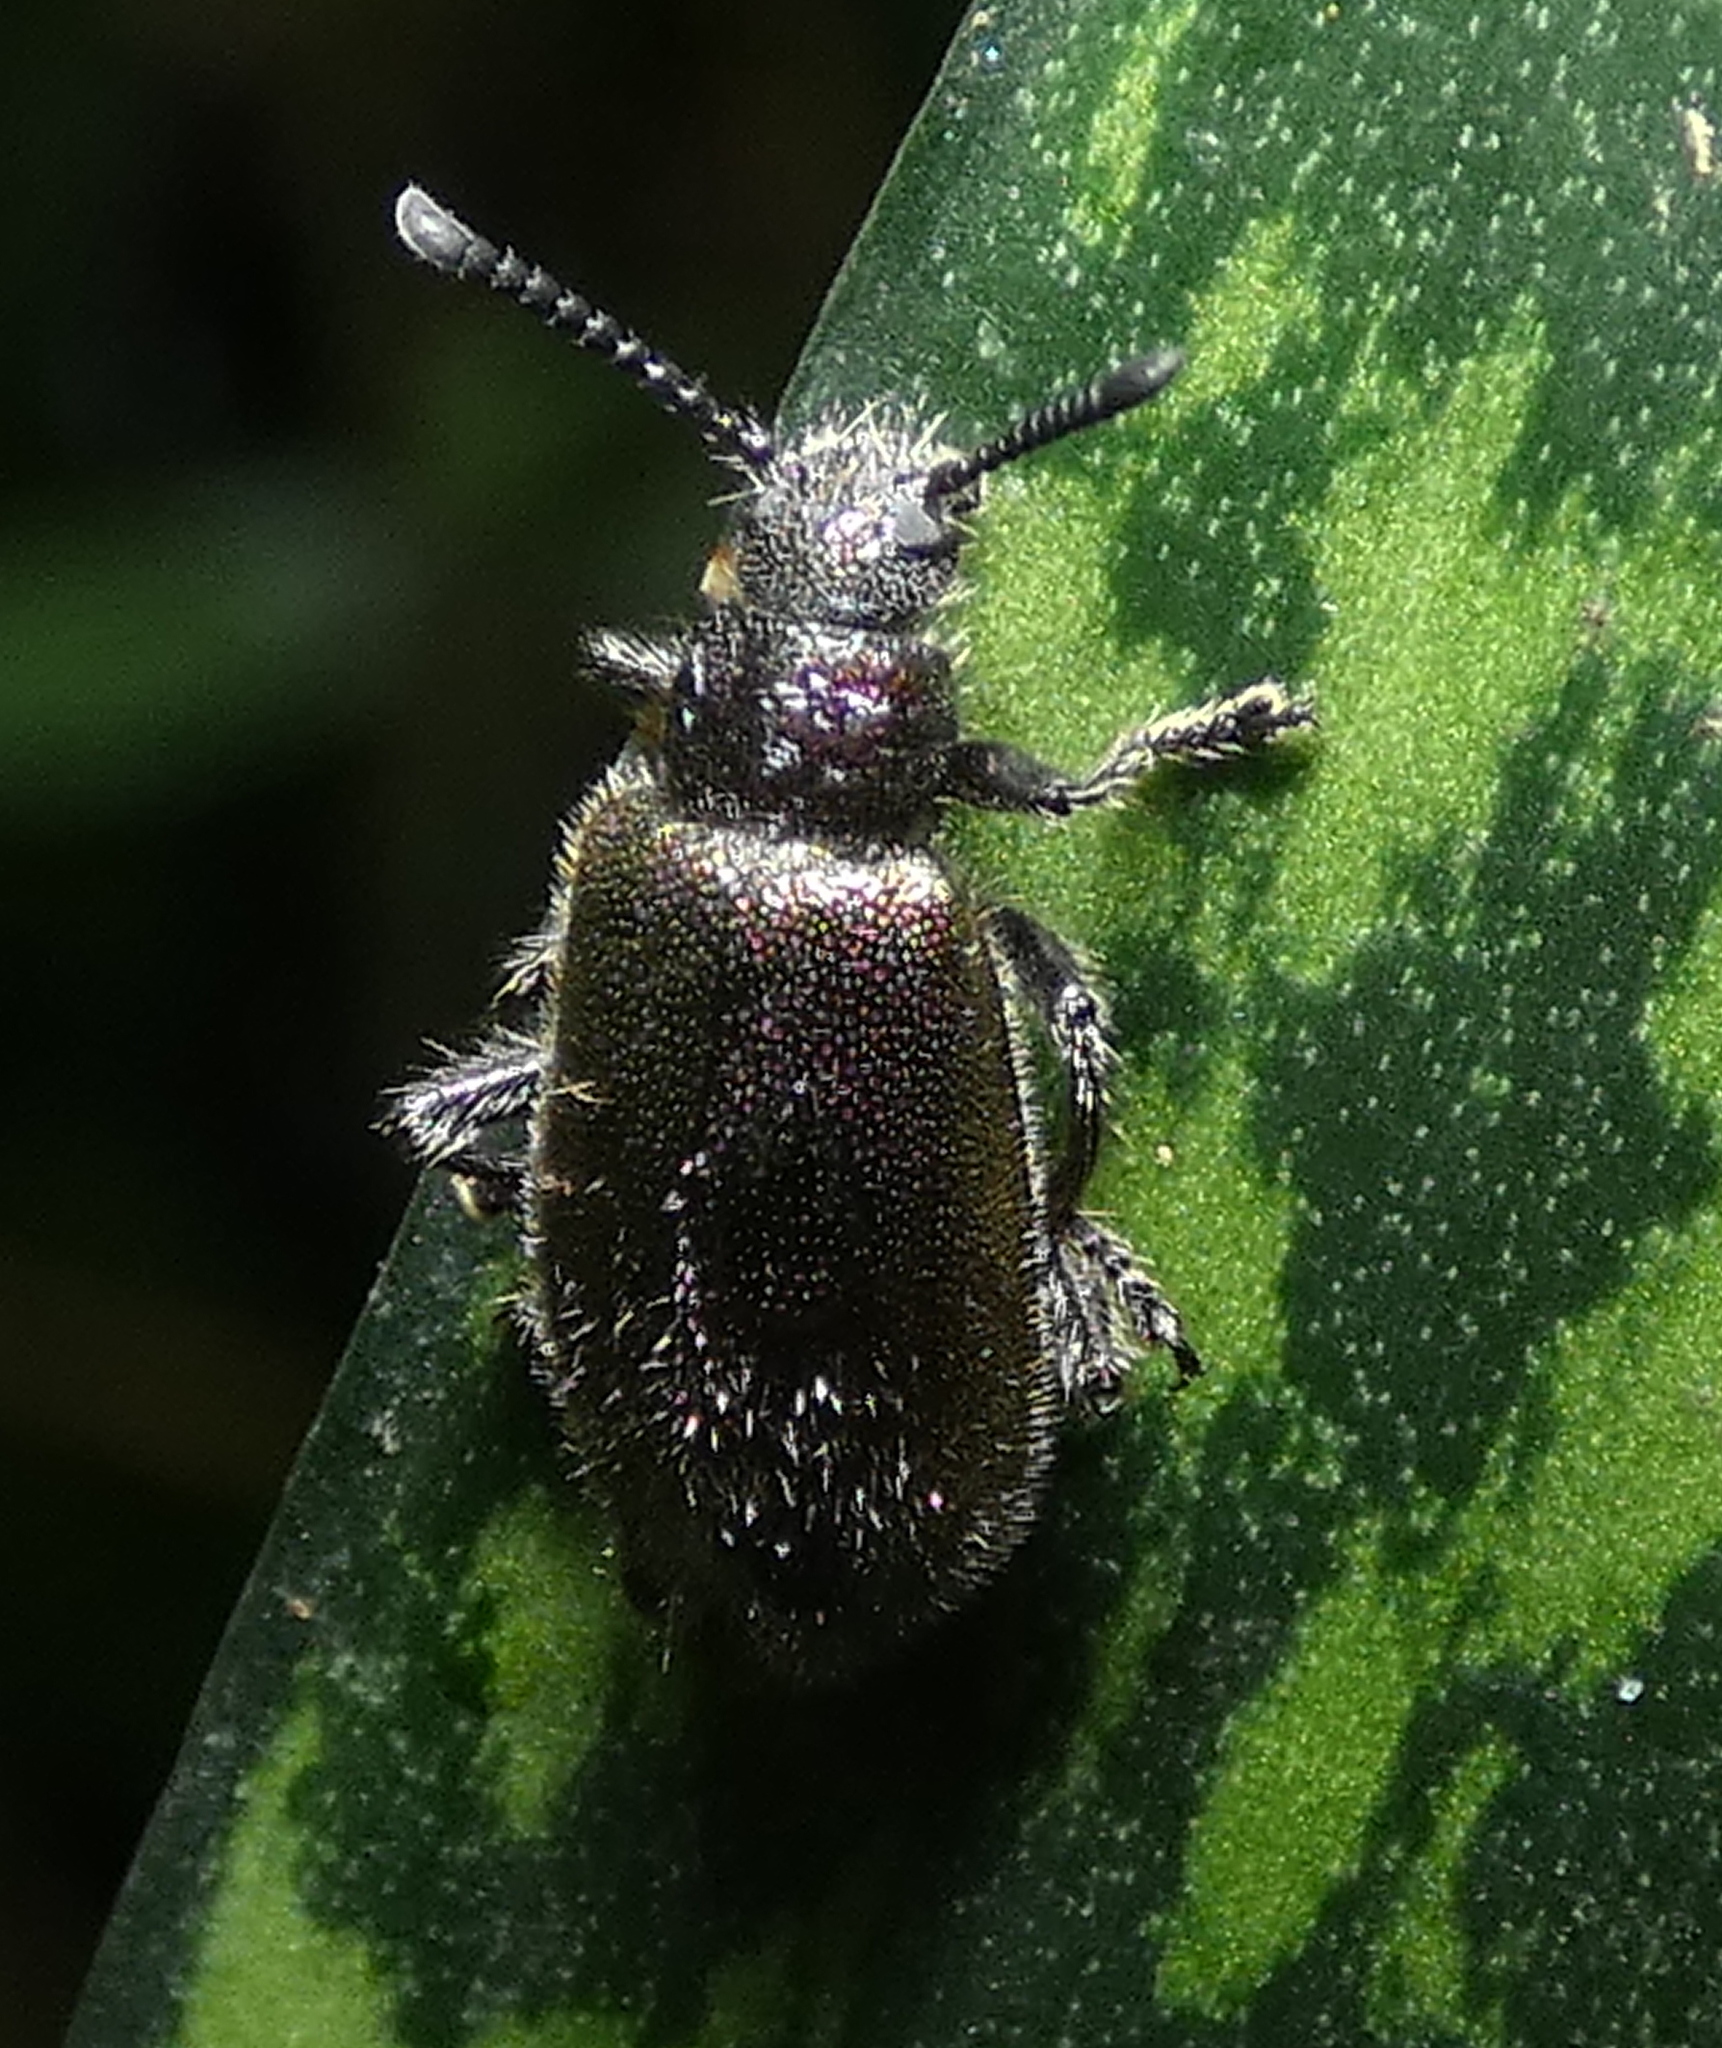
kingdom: Animalia
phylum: Arthropoda
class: Insecta
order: Coleoptera
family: Tenebrionidae
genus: Lagria
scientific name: Lagria villosa
